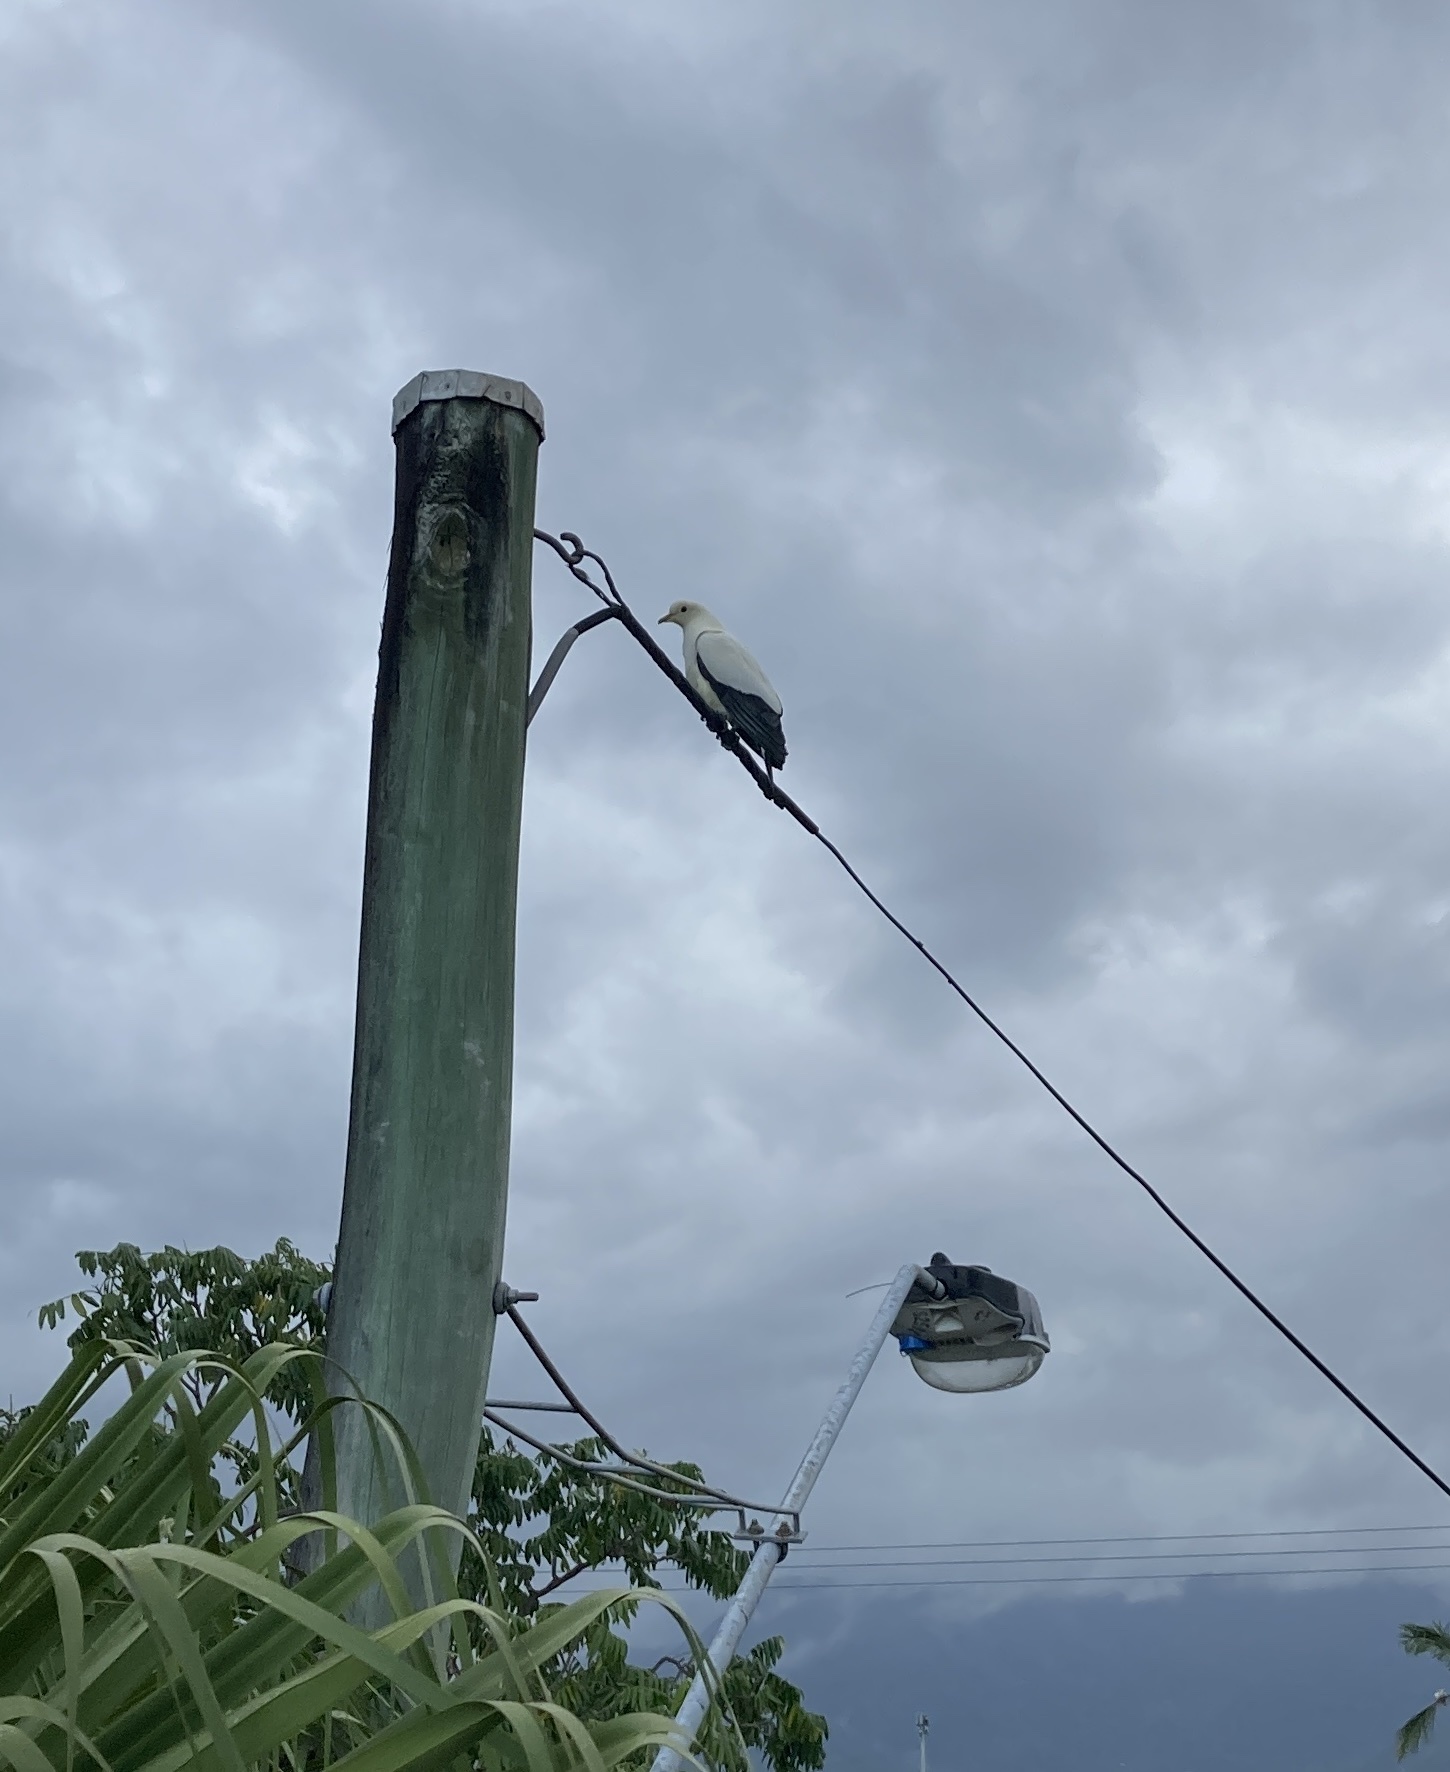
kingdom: Animalia
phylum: Chordata
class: Aves
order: Columbiformes
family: Columbidae
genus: Ducula
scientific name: Ducula spilorrhoa
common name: Torresian imperial pigeon
